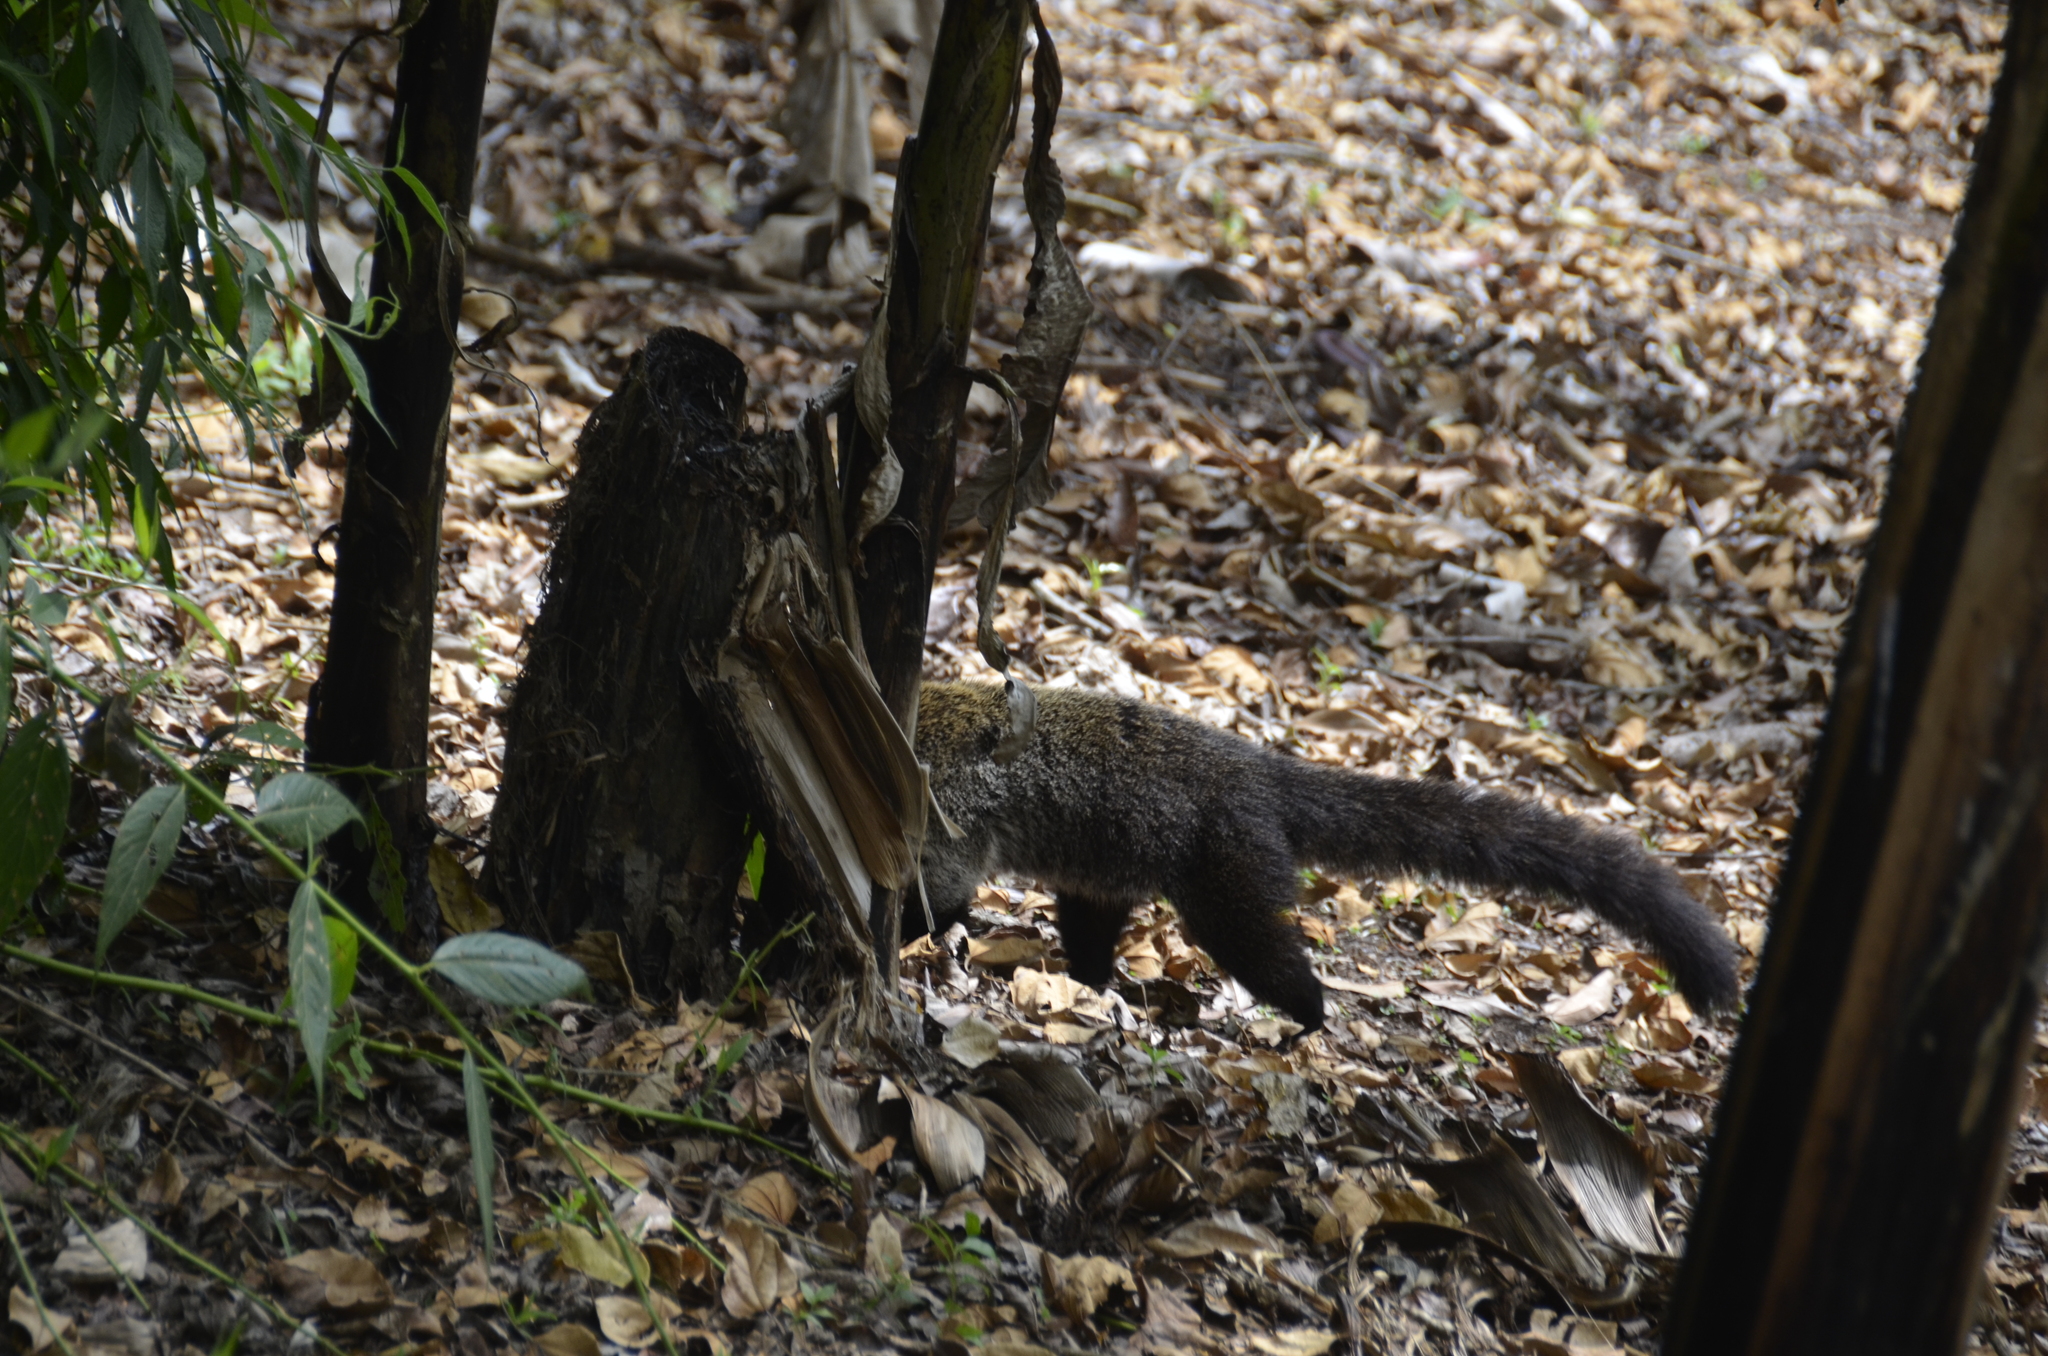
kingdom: Animalia
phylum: Chordata
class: Mammalia
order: Carnivora
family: Procyonidae
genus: Nasua
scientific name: Nasua narica
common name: White-nosed coati
